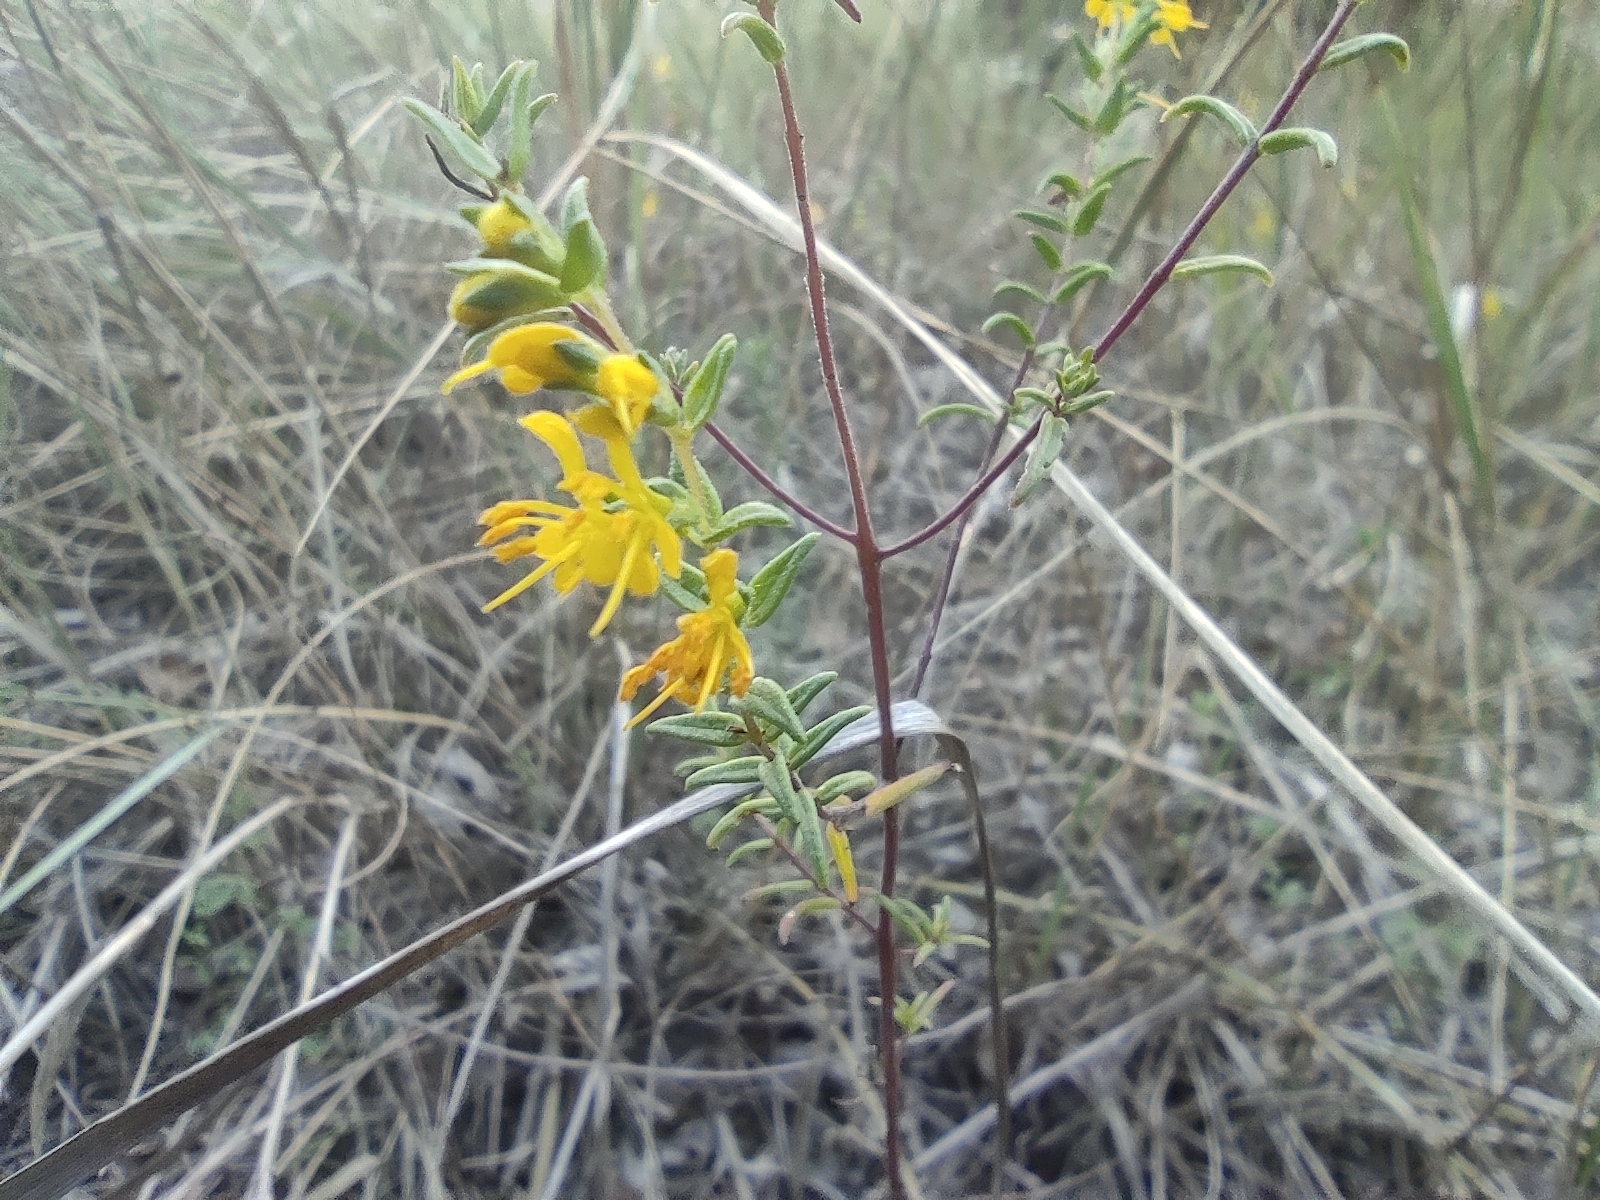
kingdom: Plantae
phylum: Tracheophyta
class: Magnoliopsida
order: Lamiales
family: Orobanchaceae
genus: Odontites
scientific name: Odontites luteus
